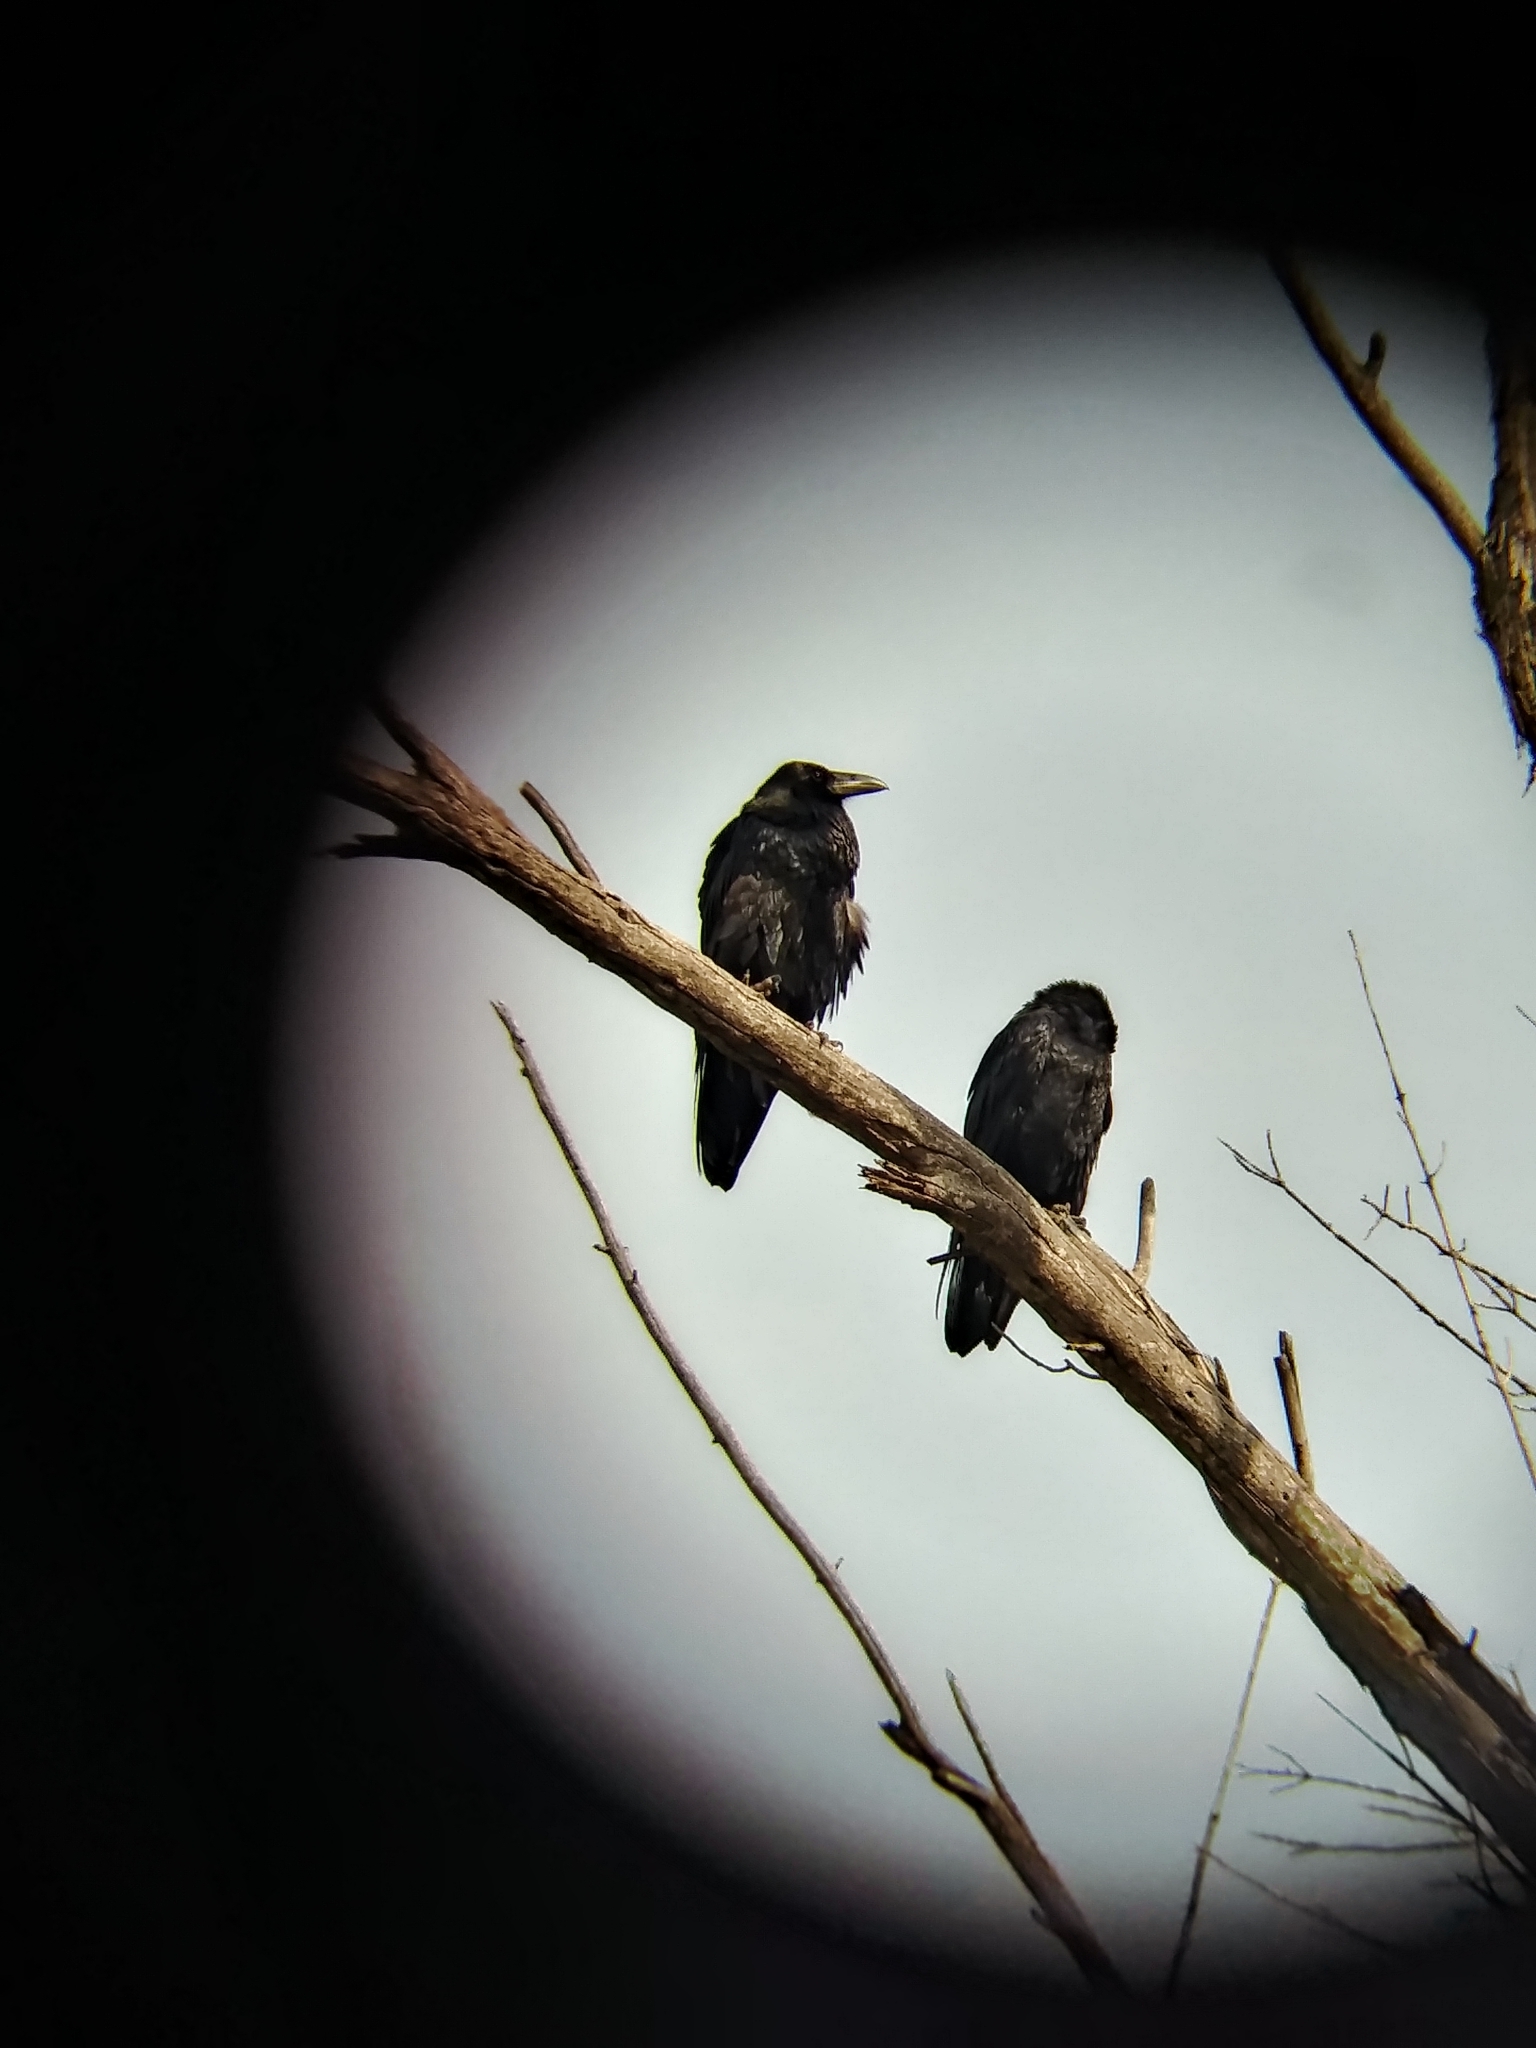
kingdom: Animalia
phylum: Chordata
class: Aves
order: Passeriformes
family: Corvidae
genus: Corvus
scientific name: Corvus corax
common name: Common raven
